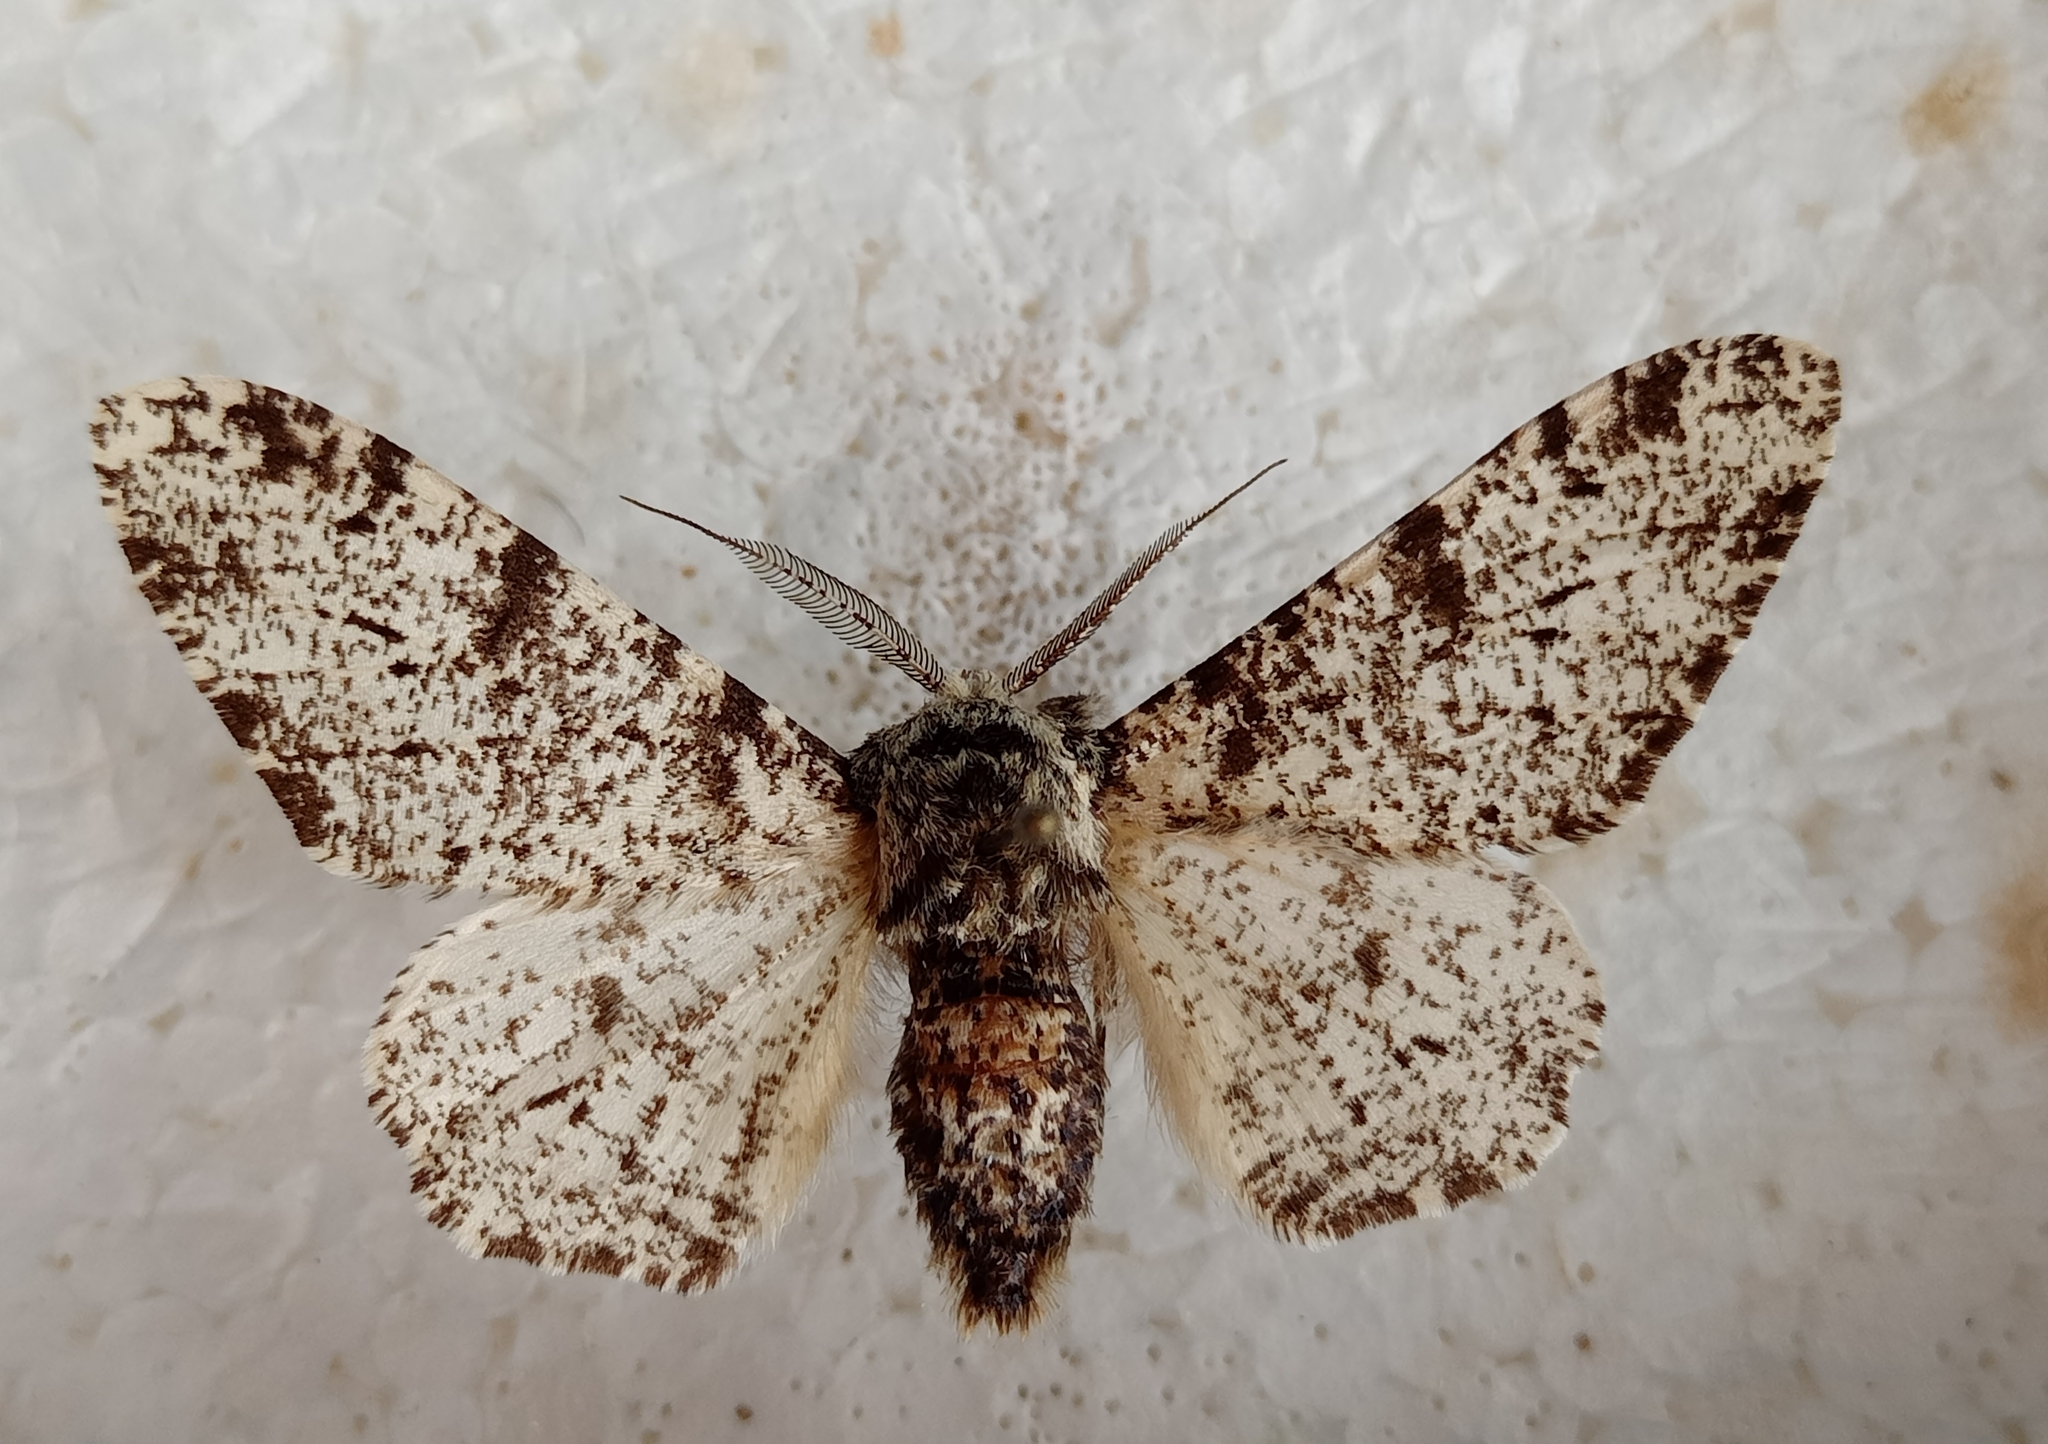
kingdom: Animalia
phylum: Arthropoda
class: Insecta
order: Lepidoptera
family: Geometridae
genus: Biston
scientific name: Biston betularia
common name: Peppered moth
